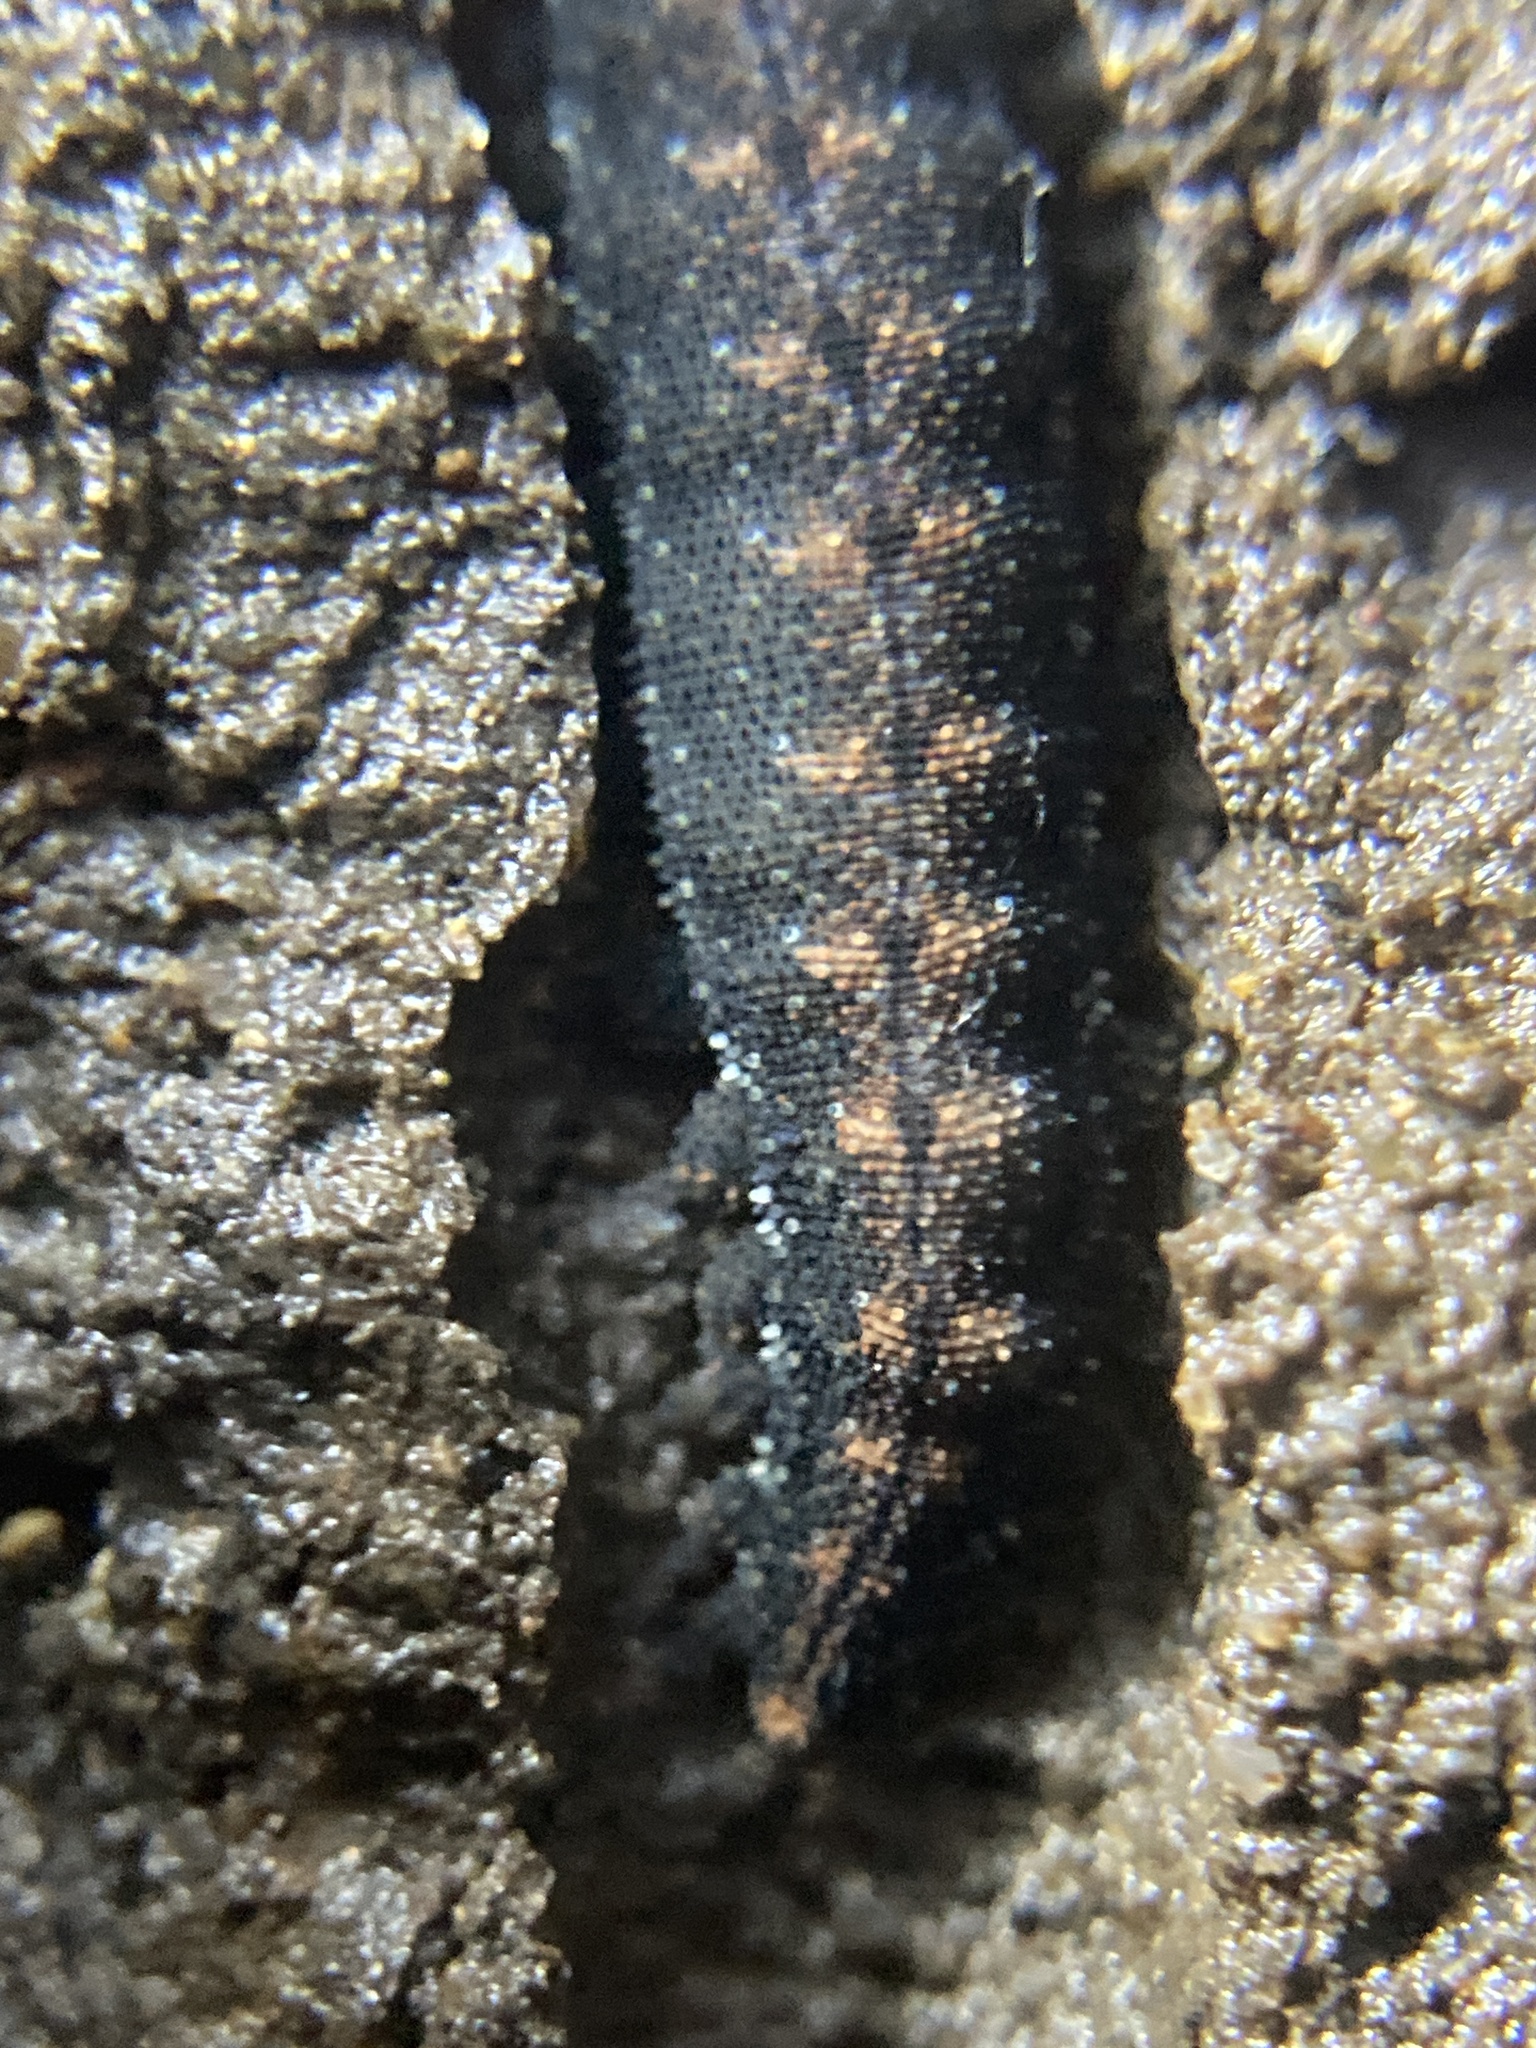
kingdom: Animalia
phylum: Onychophora
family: Peripatopsidae
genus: Anoplokaros
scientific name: Anoplokaros keerensis
